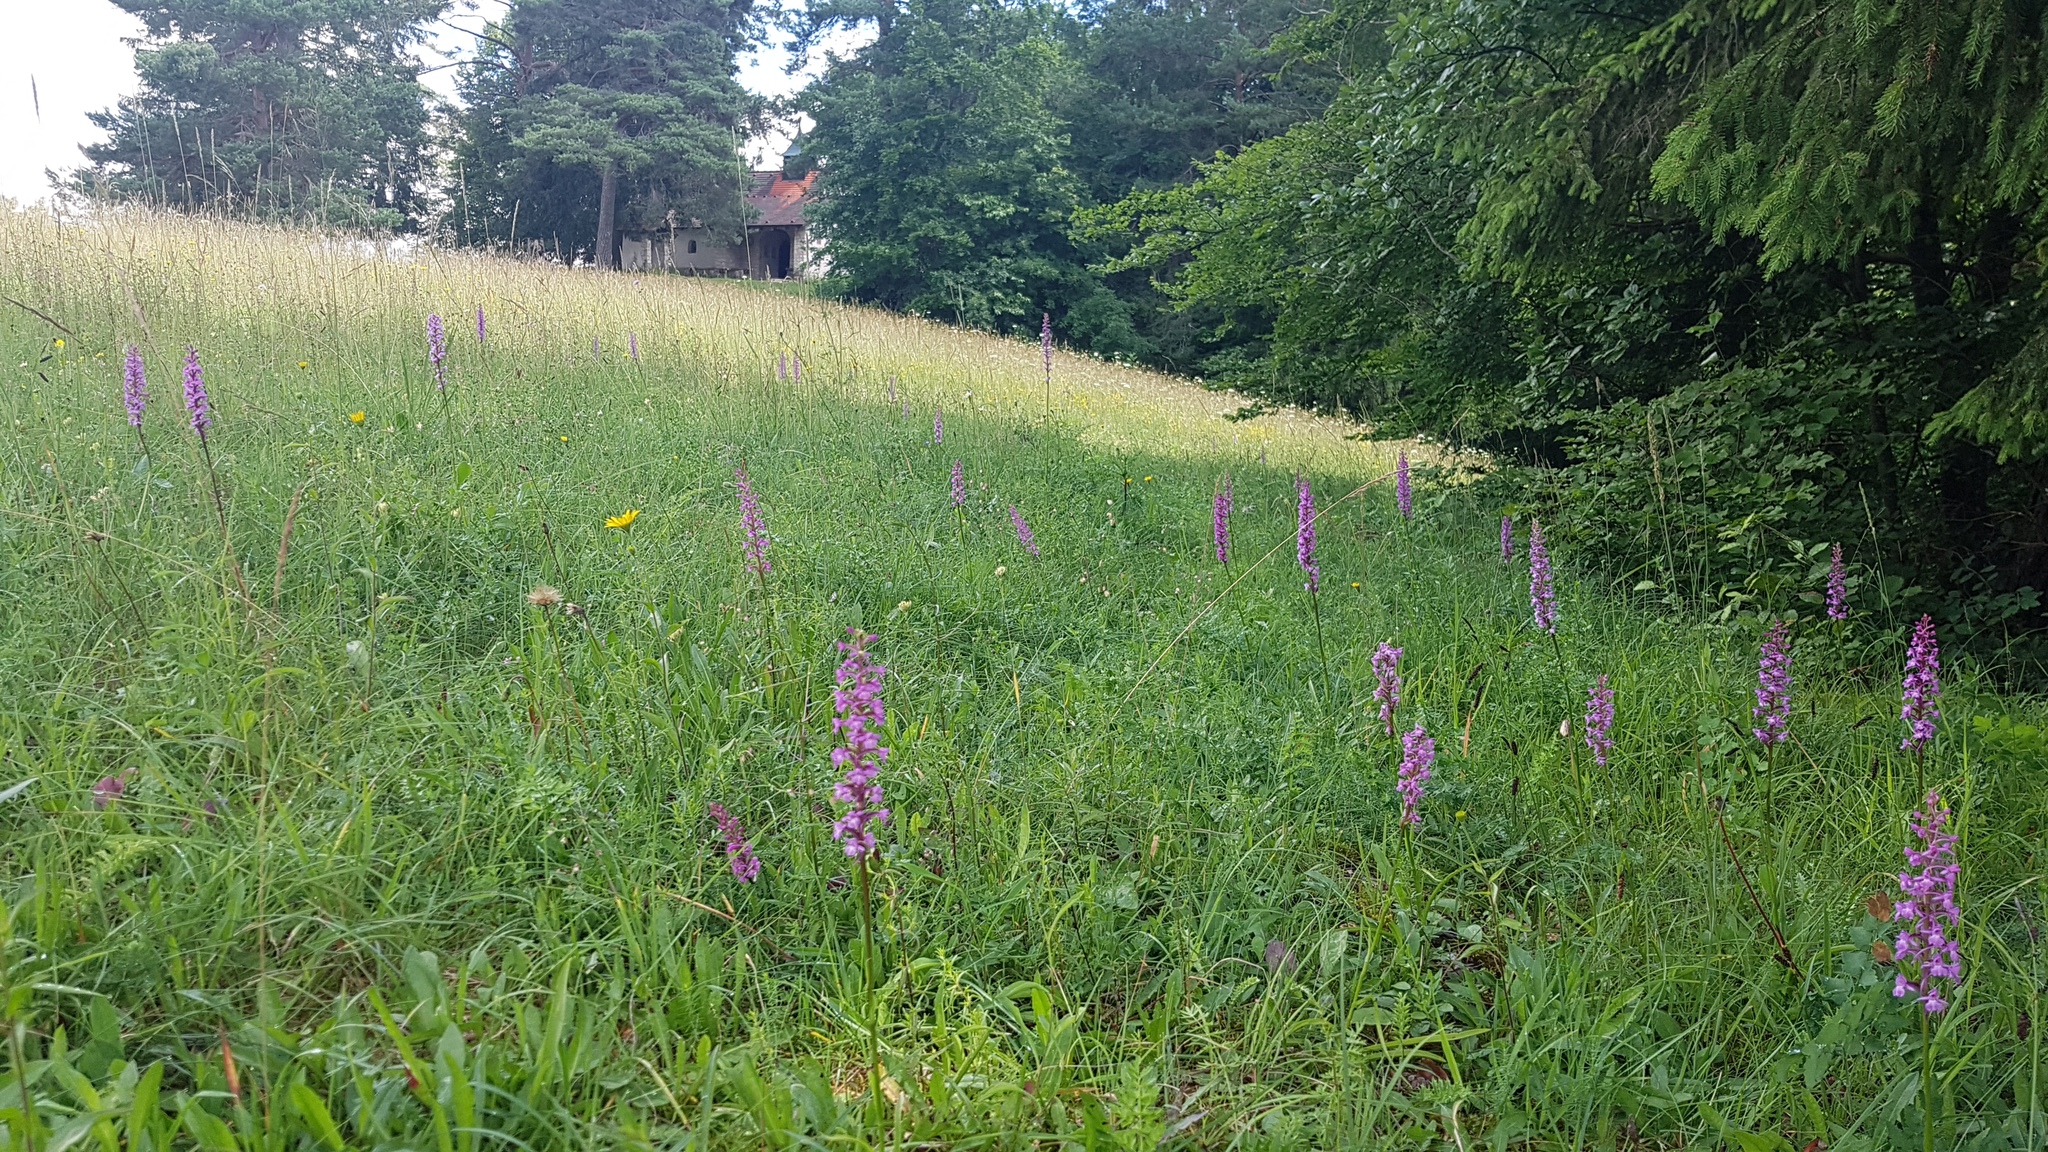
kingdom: Plantae
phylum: Tracheophyta
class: Liliopsida
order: Asparagales
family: Orchidaceae
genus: Gymnadenia
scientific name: Gymnadenia conopsea
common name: Fragrant orchid
